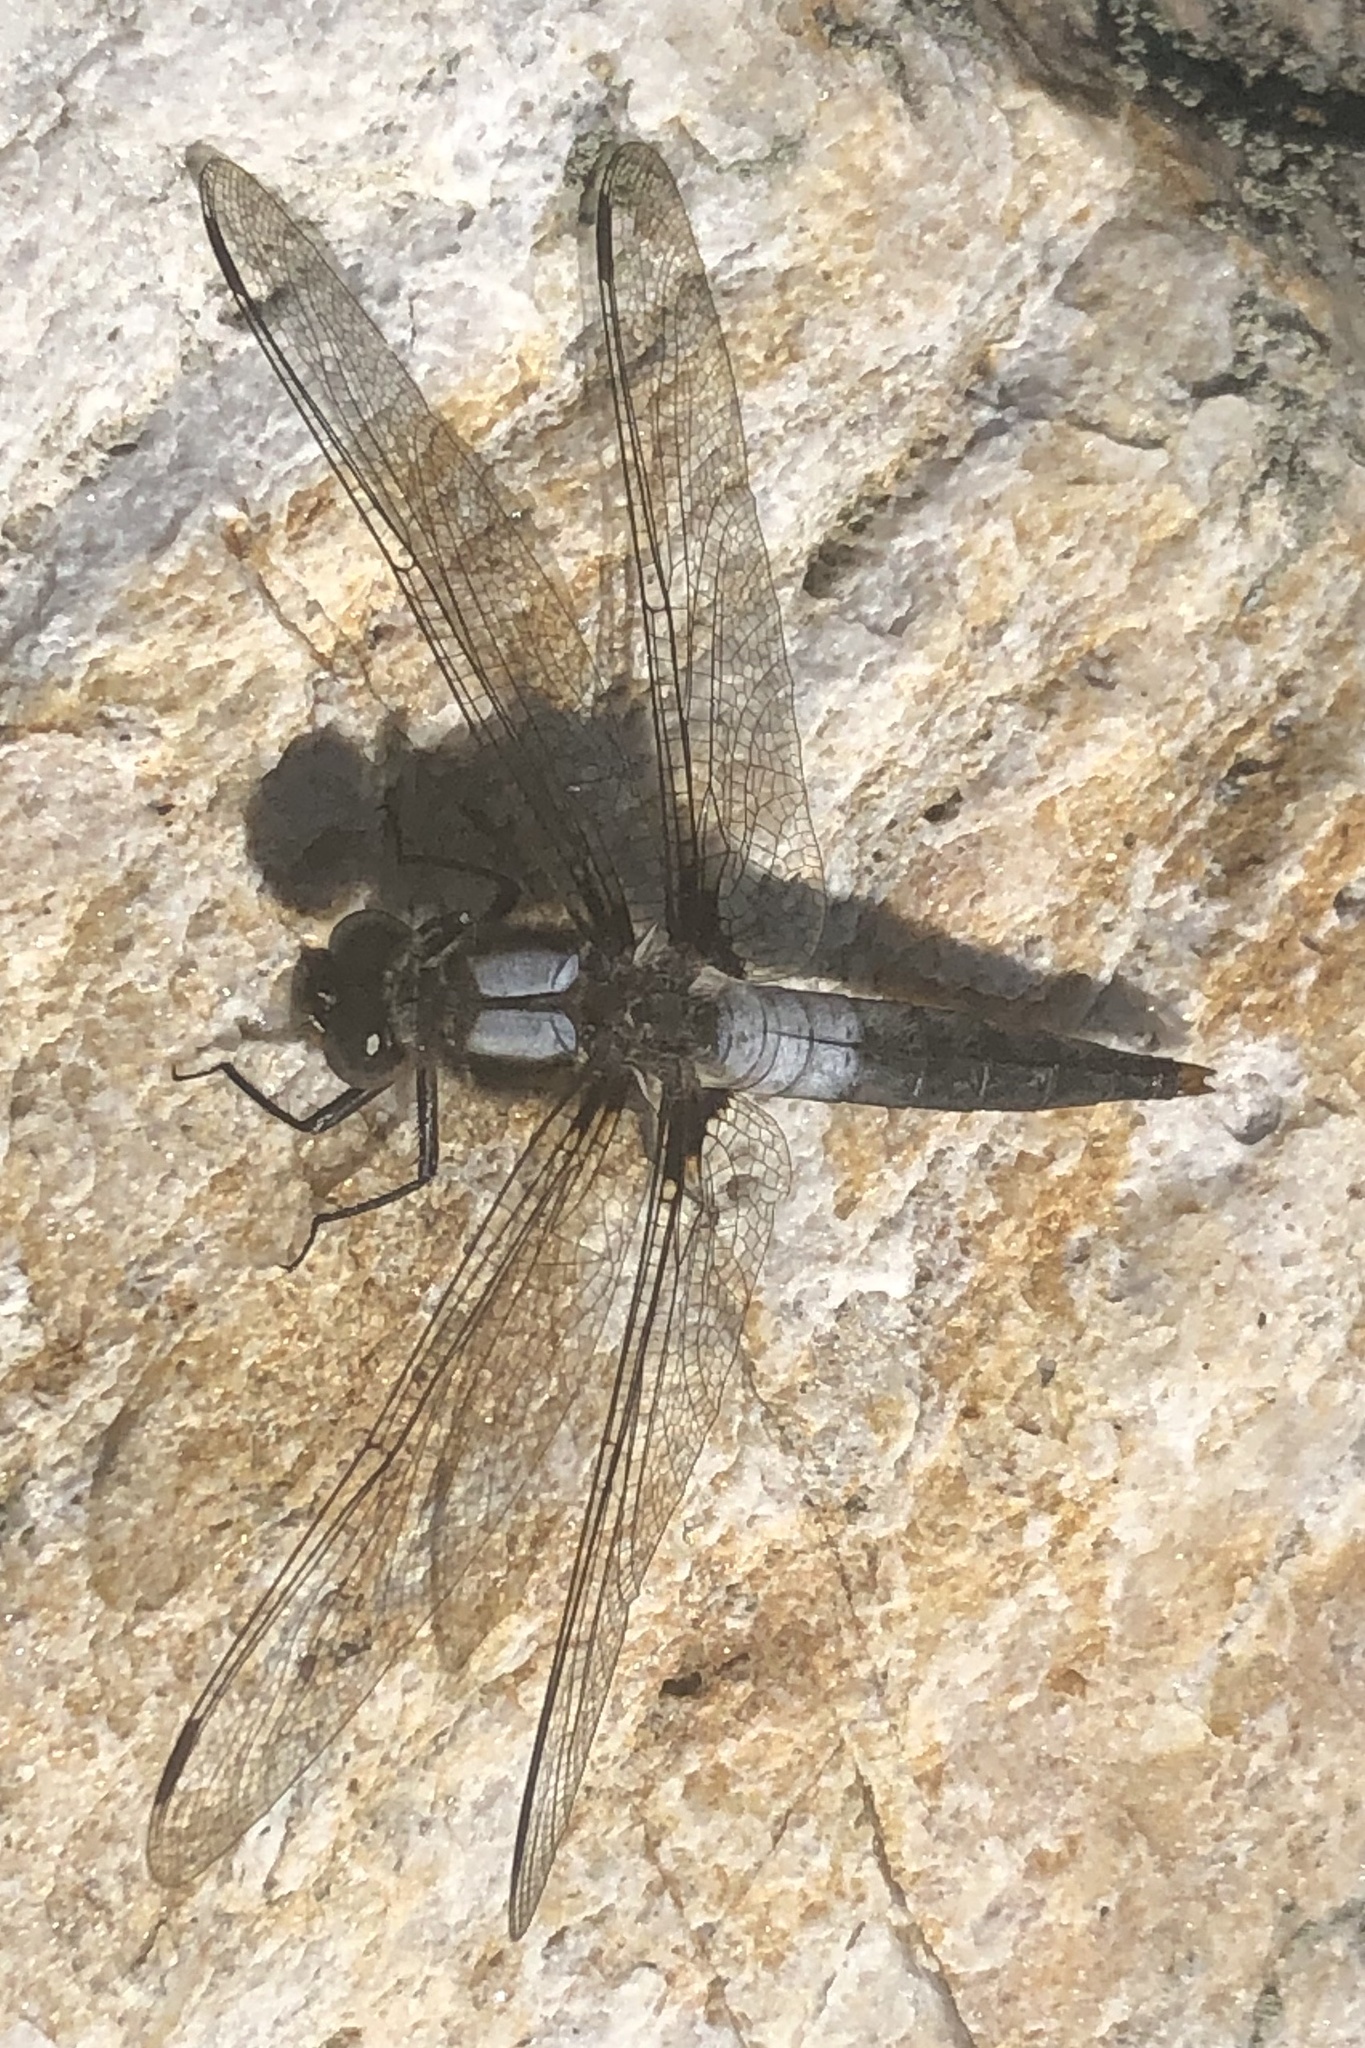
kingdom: Animalia
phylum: Arthropoda
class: Insecta
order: Odonata
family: Libellulidae
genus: Ladona
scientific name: Ladona julia
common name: Chalk-fronted corporal
